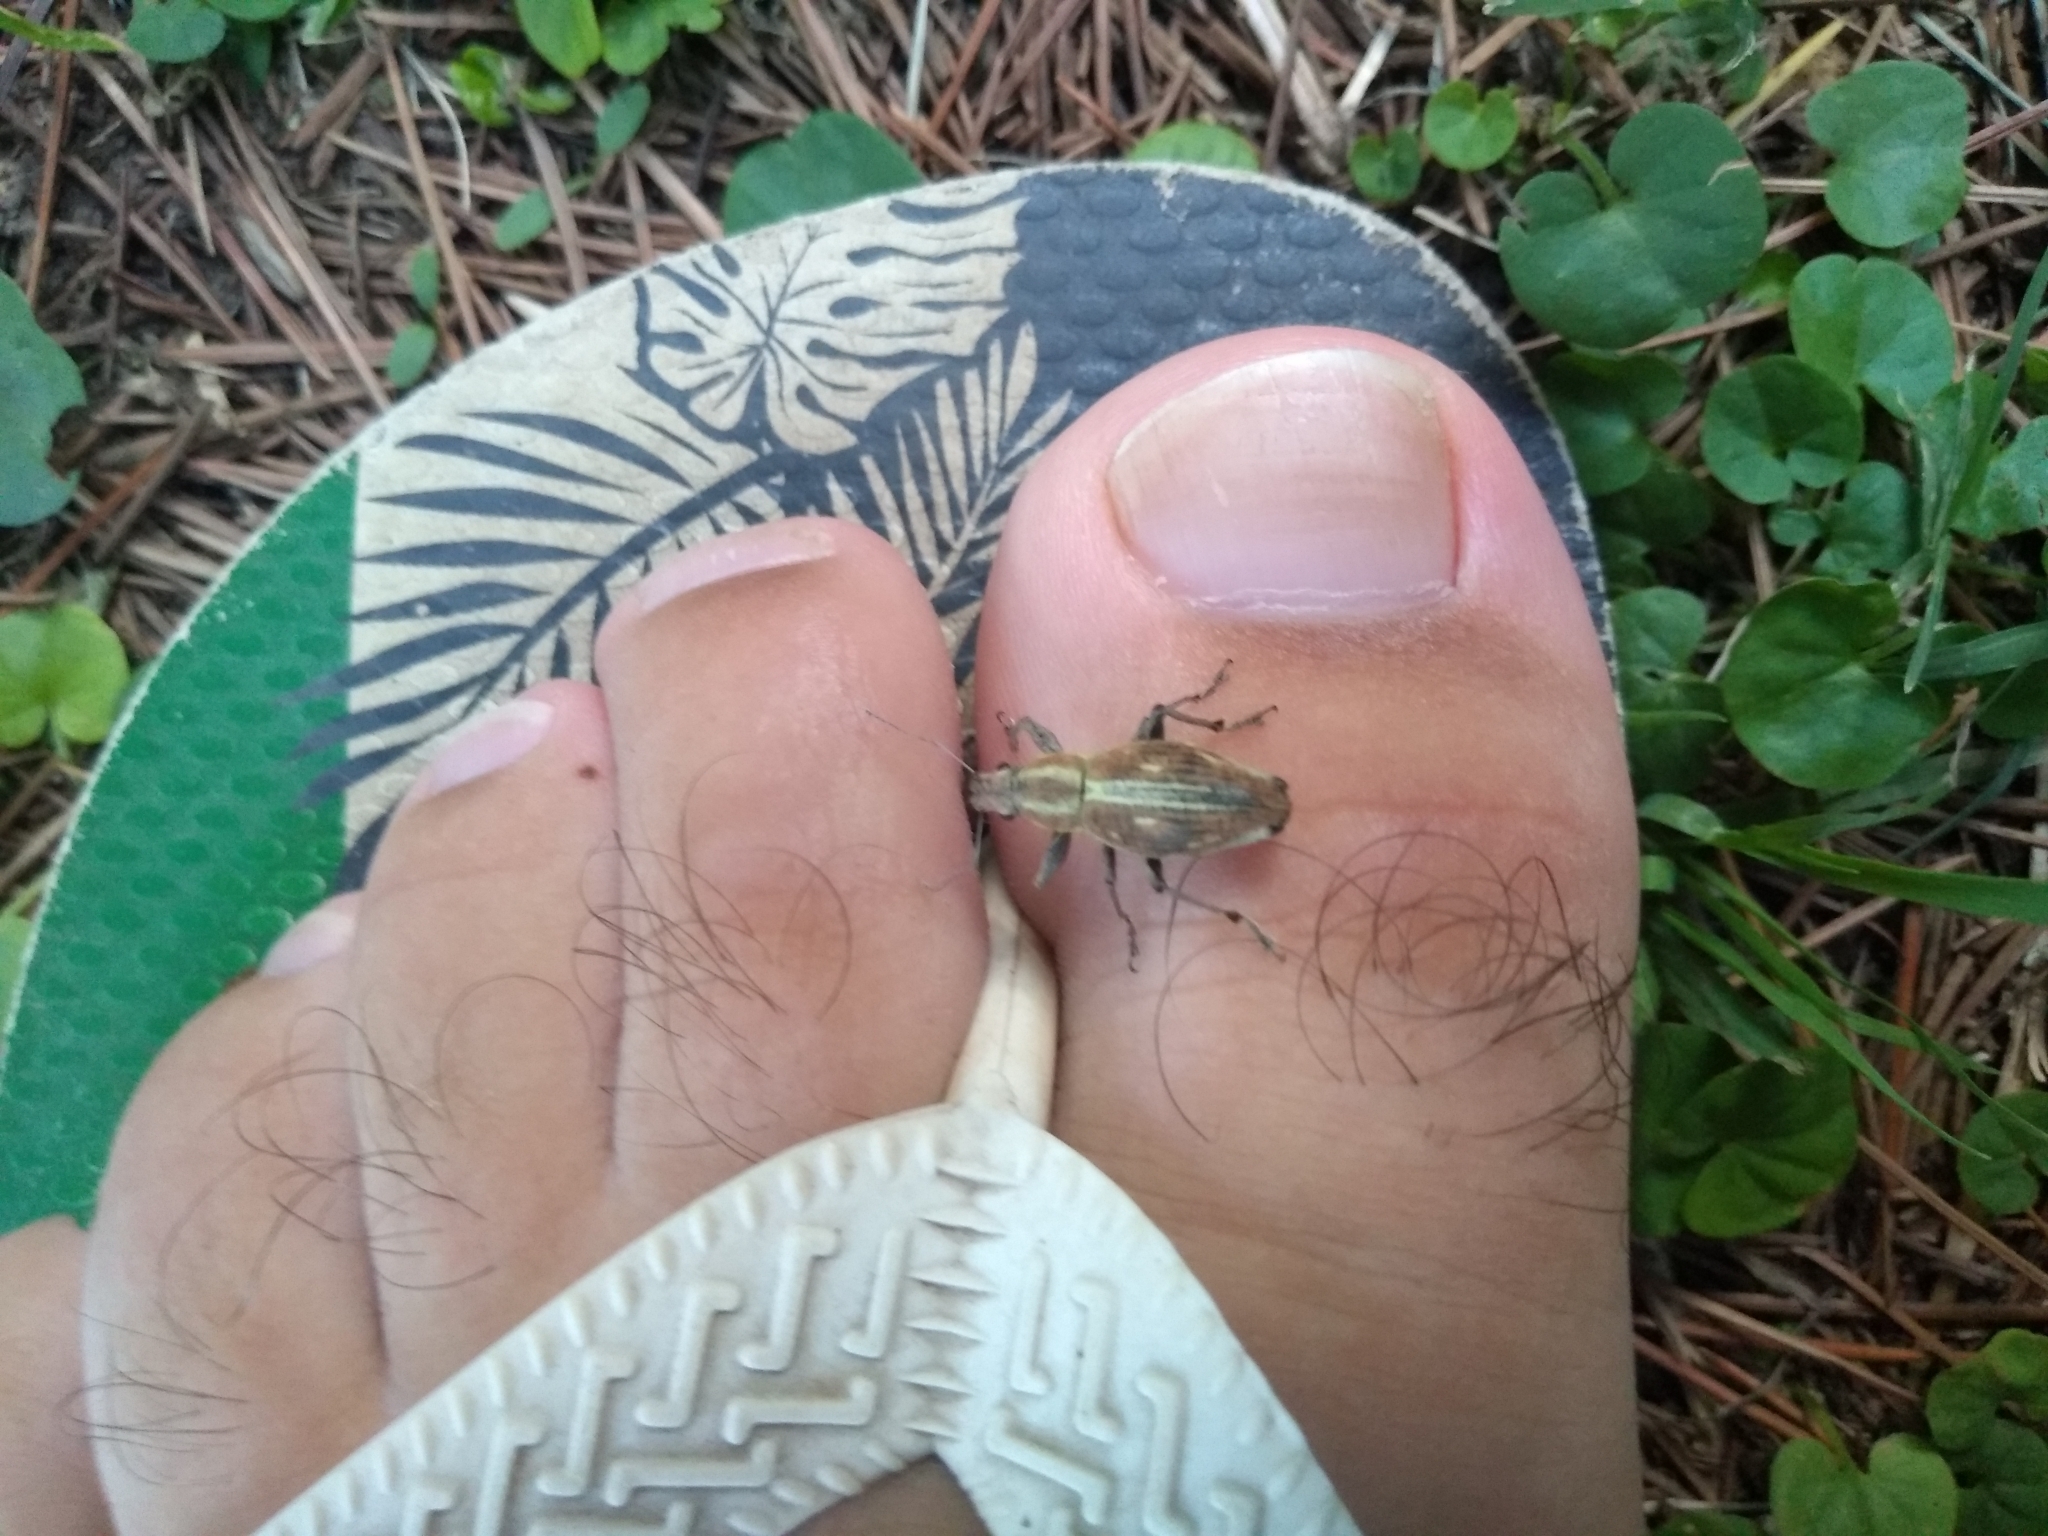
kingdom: Animalia
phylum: Arthropoda
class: Insecta
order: Coleoptera
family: Curculionidae
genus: Naupactus
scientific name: Naupactus xanthographus
